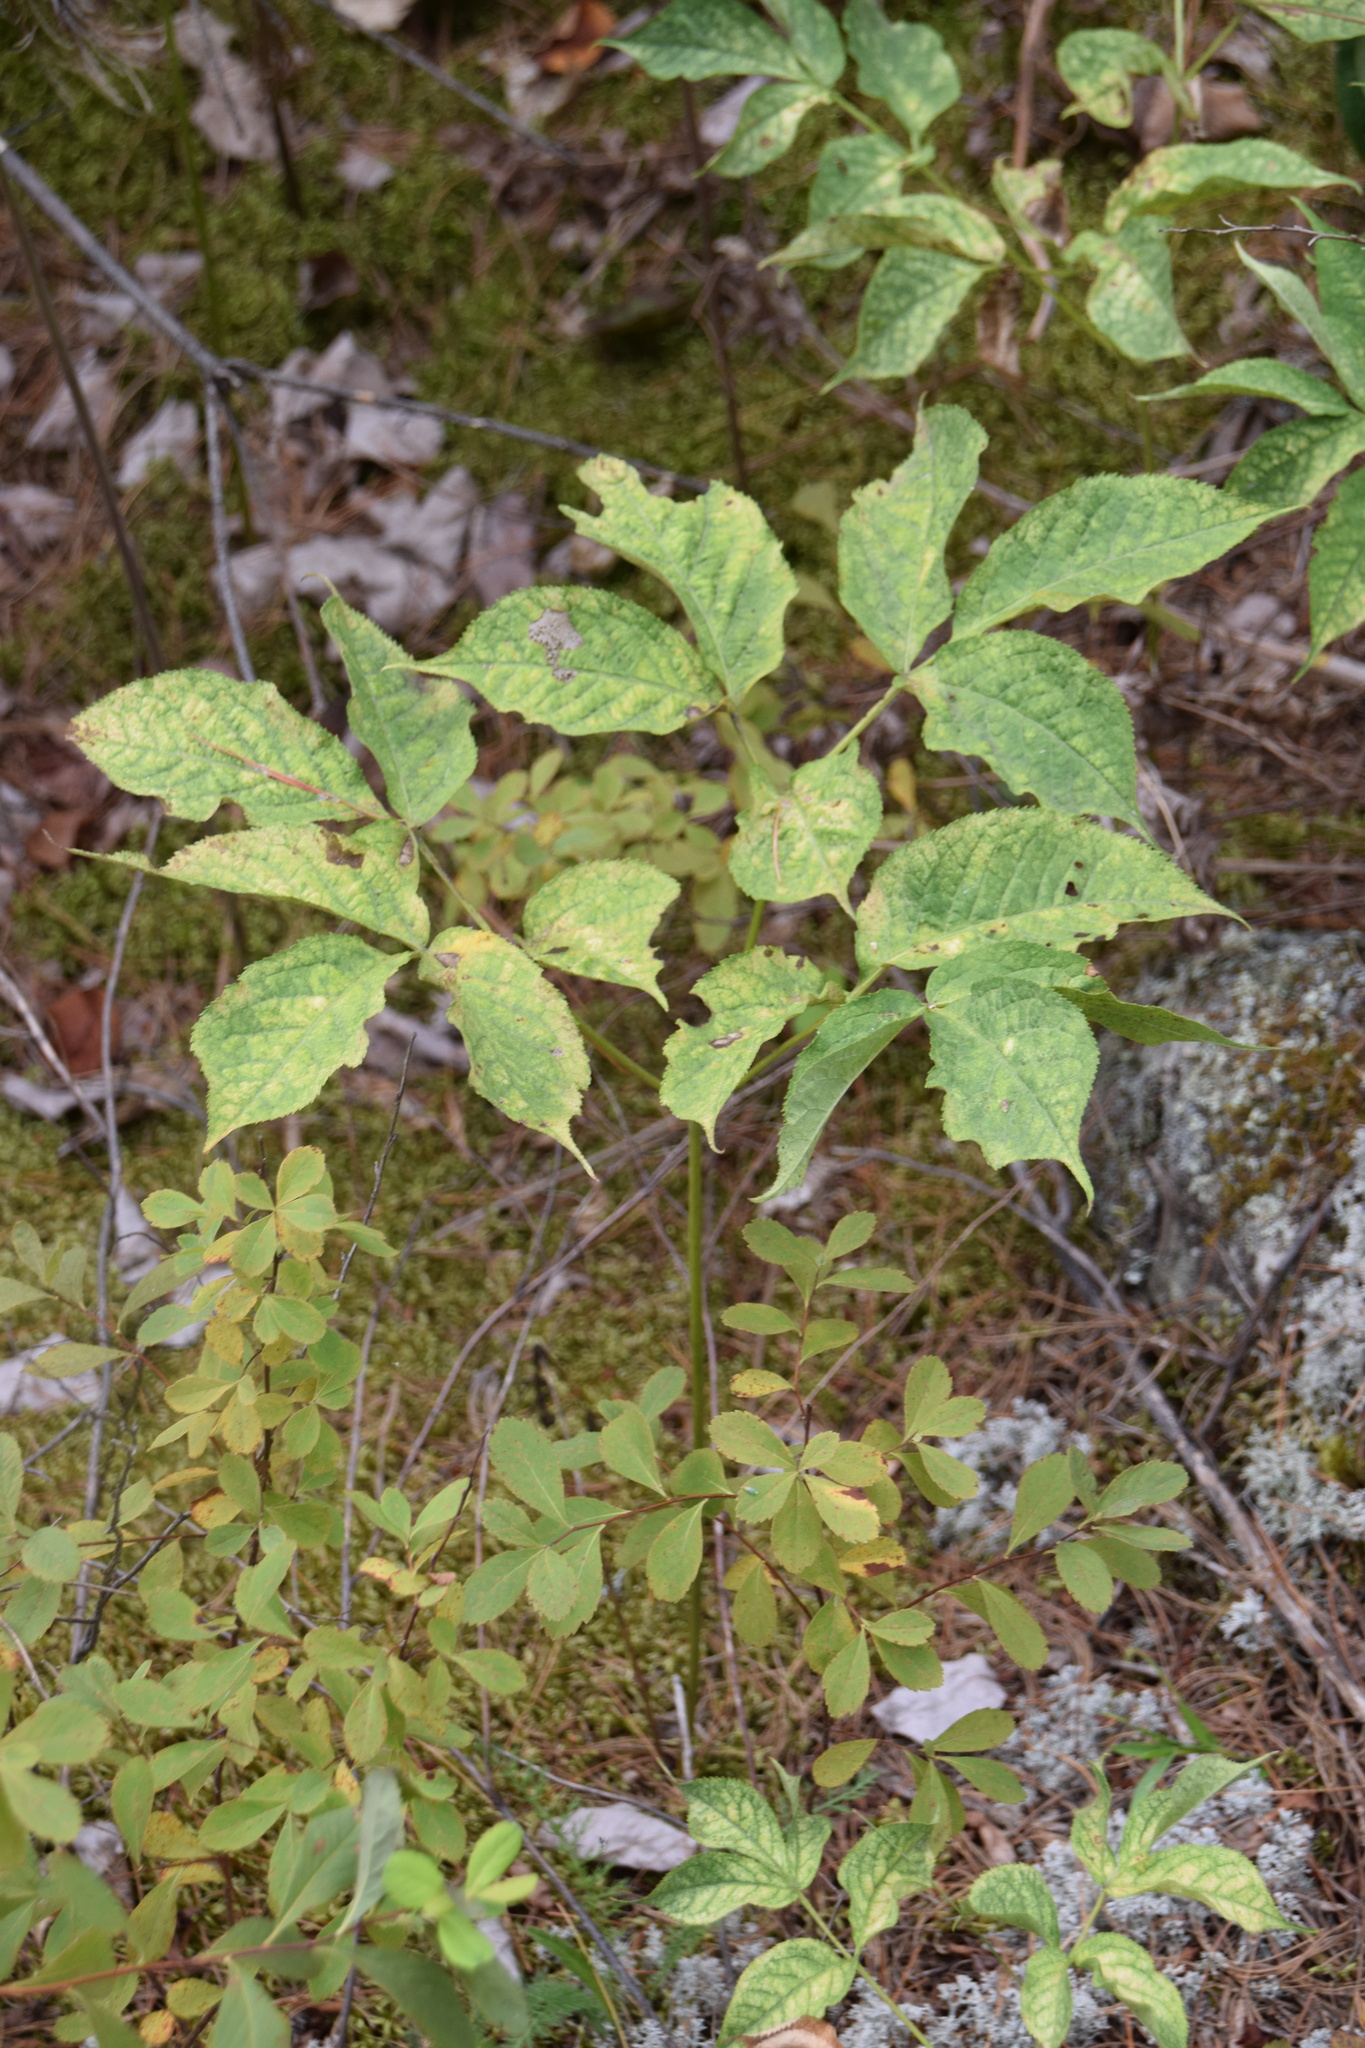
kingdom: Plantae
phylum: Tracheophyta
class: Magnoliopsida
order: Apiales
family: Araliaceae
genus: Aralia
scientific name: Aralia nudicaulis
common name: Wild sarsaparilla
